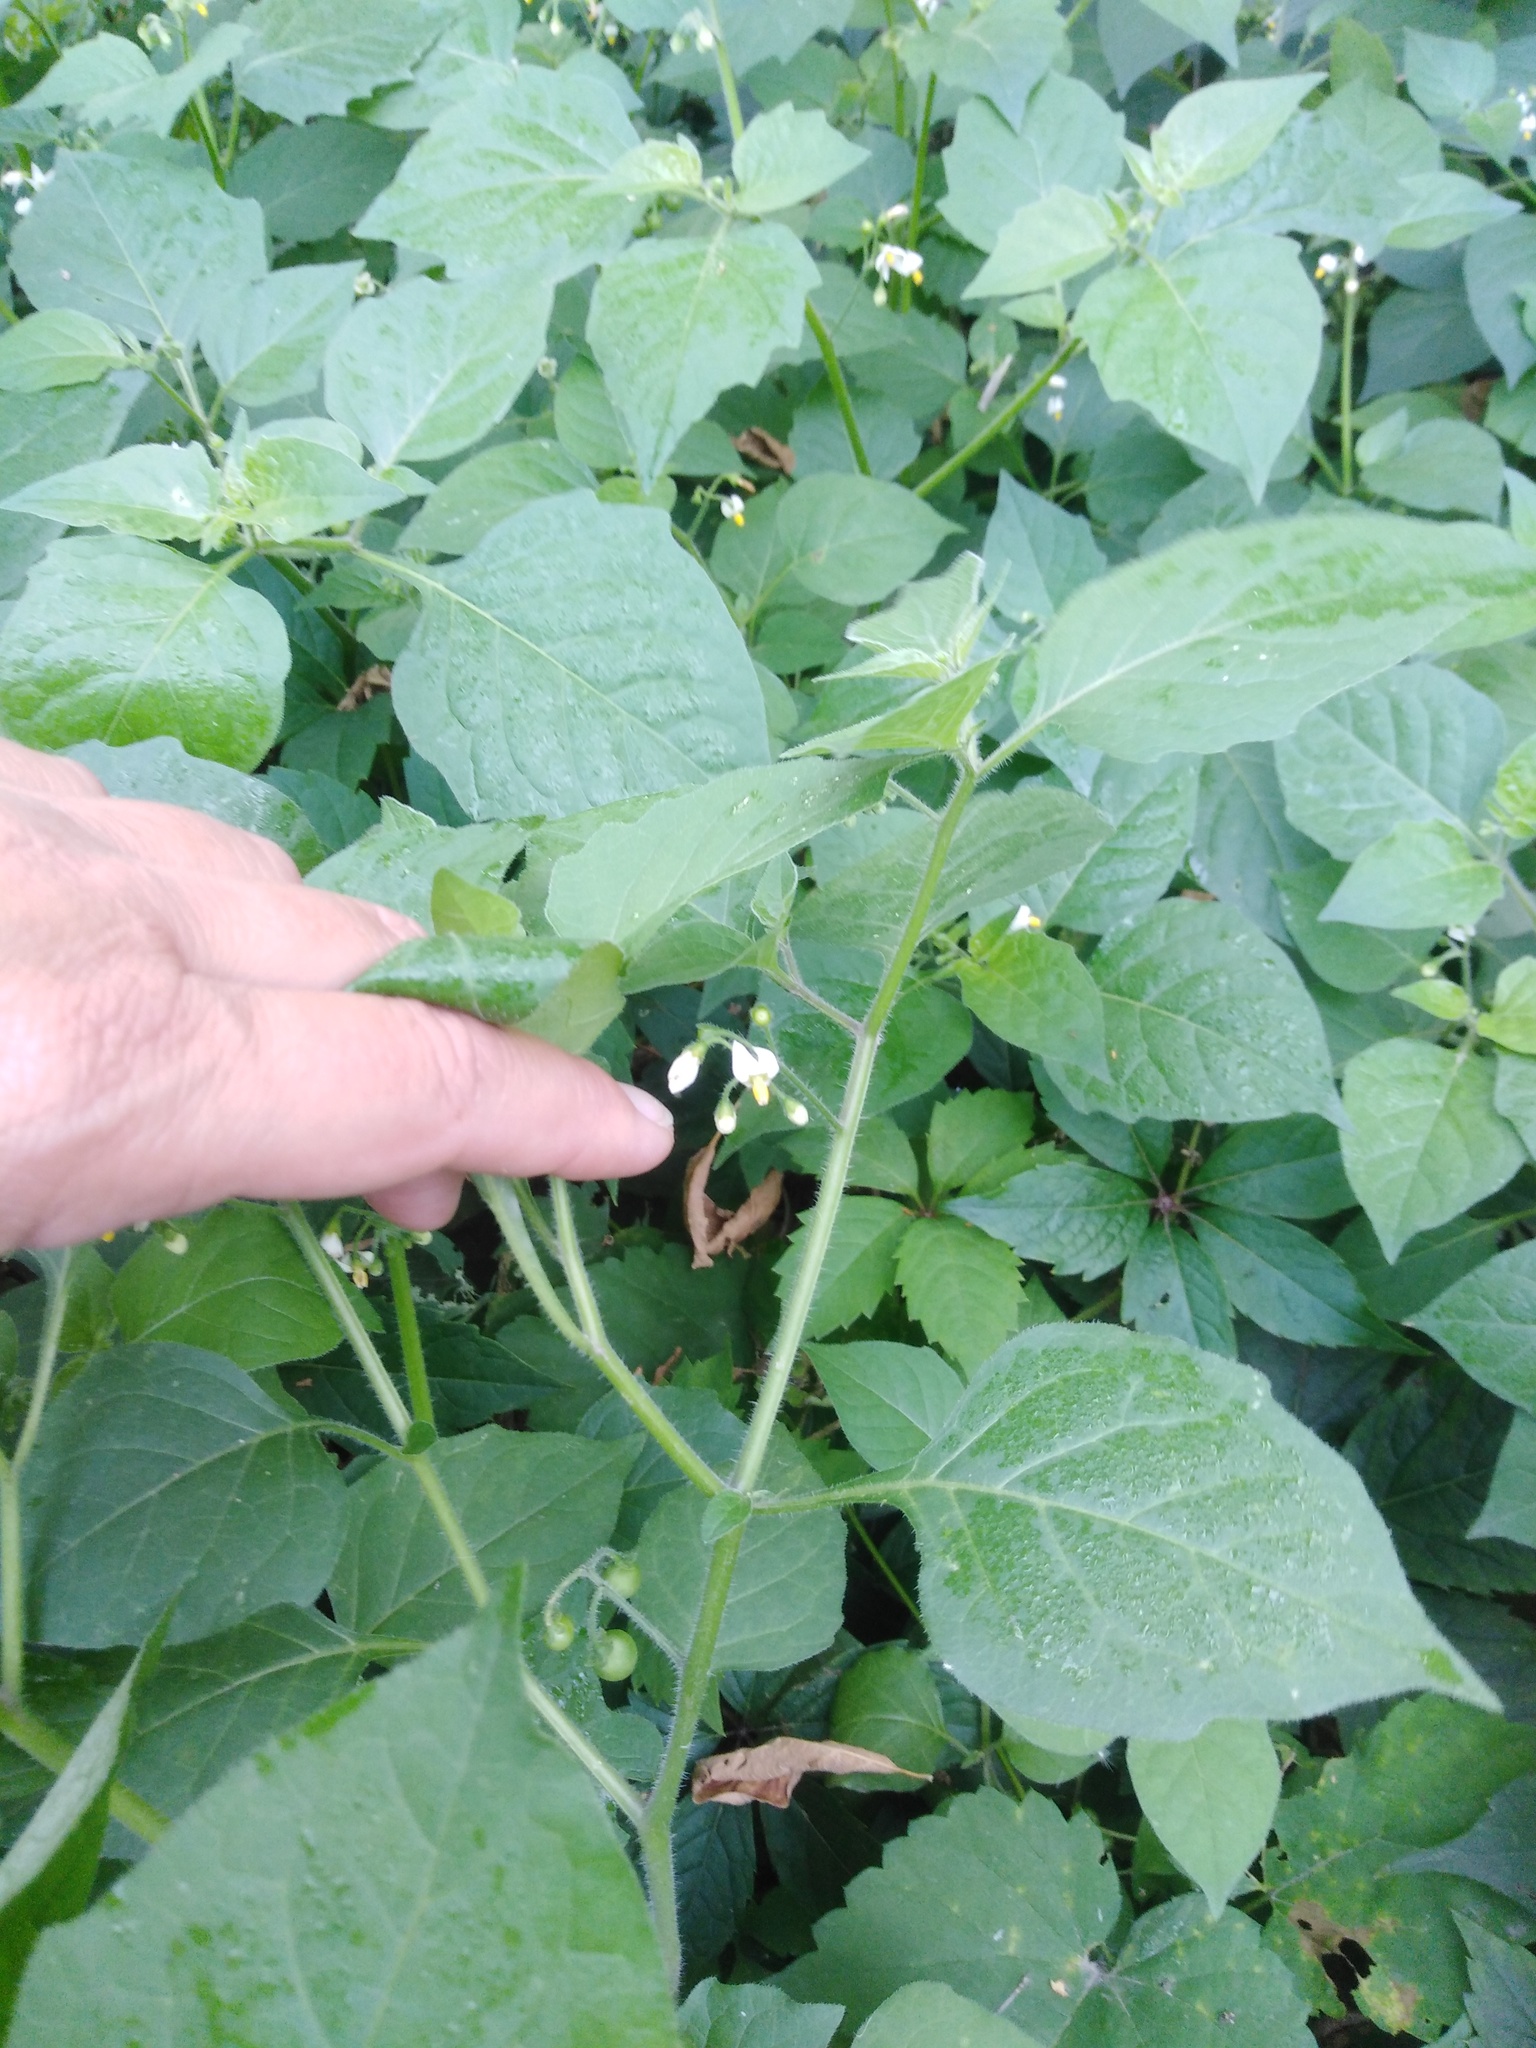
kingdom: Plantae
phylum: Tracheophyta
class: Magnoliopsida
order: Solanales
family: Solanaceae
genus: Solanum
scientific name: Solanum nigrum
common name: Black nightshade
